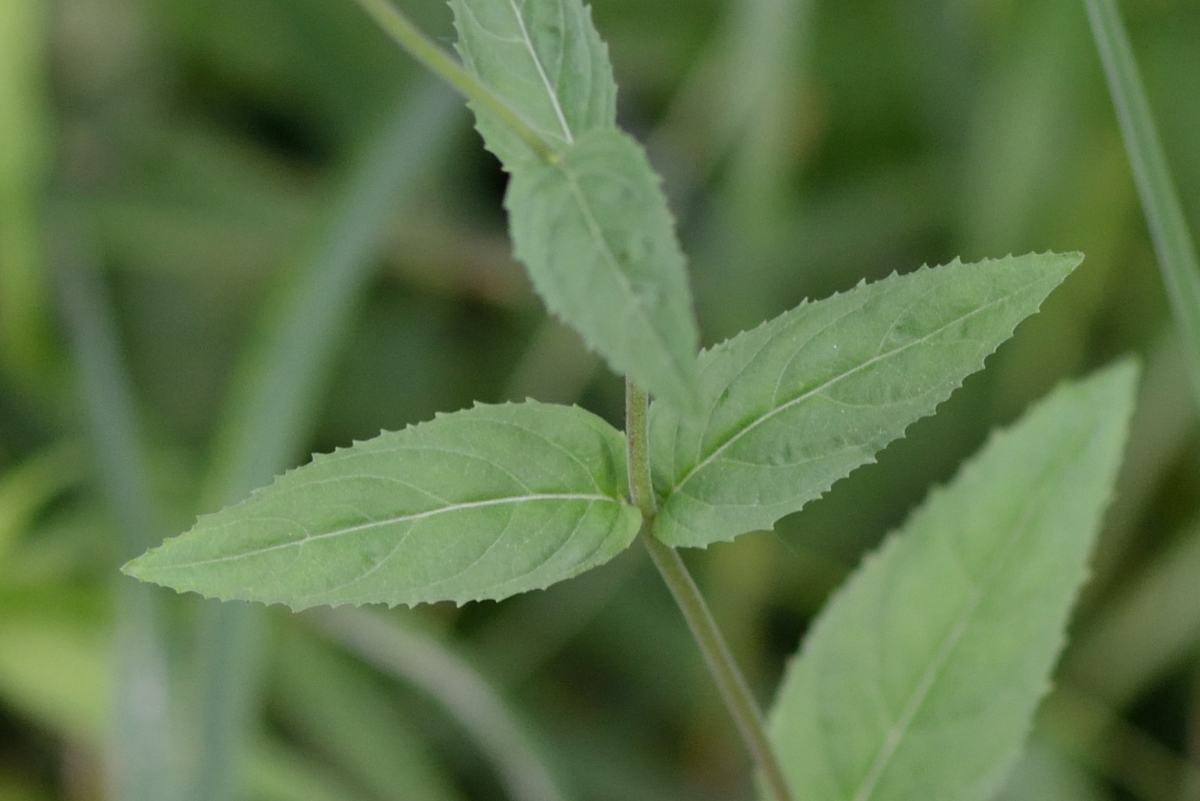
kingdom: Plantae
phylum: Tracheophyta
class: Magnoliopsida
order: Myrtales
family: Onagraceae
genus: Epilobium
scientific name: Epilobium montanum
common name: Broad-leaved willowherb
